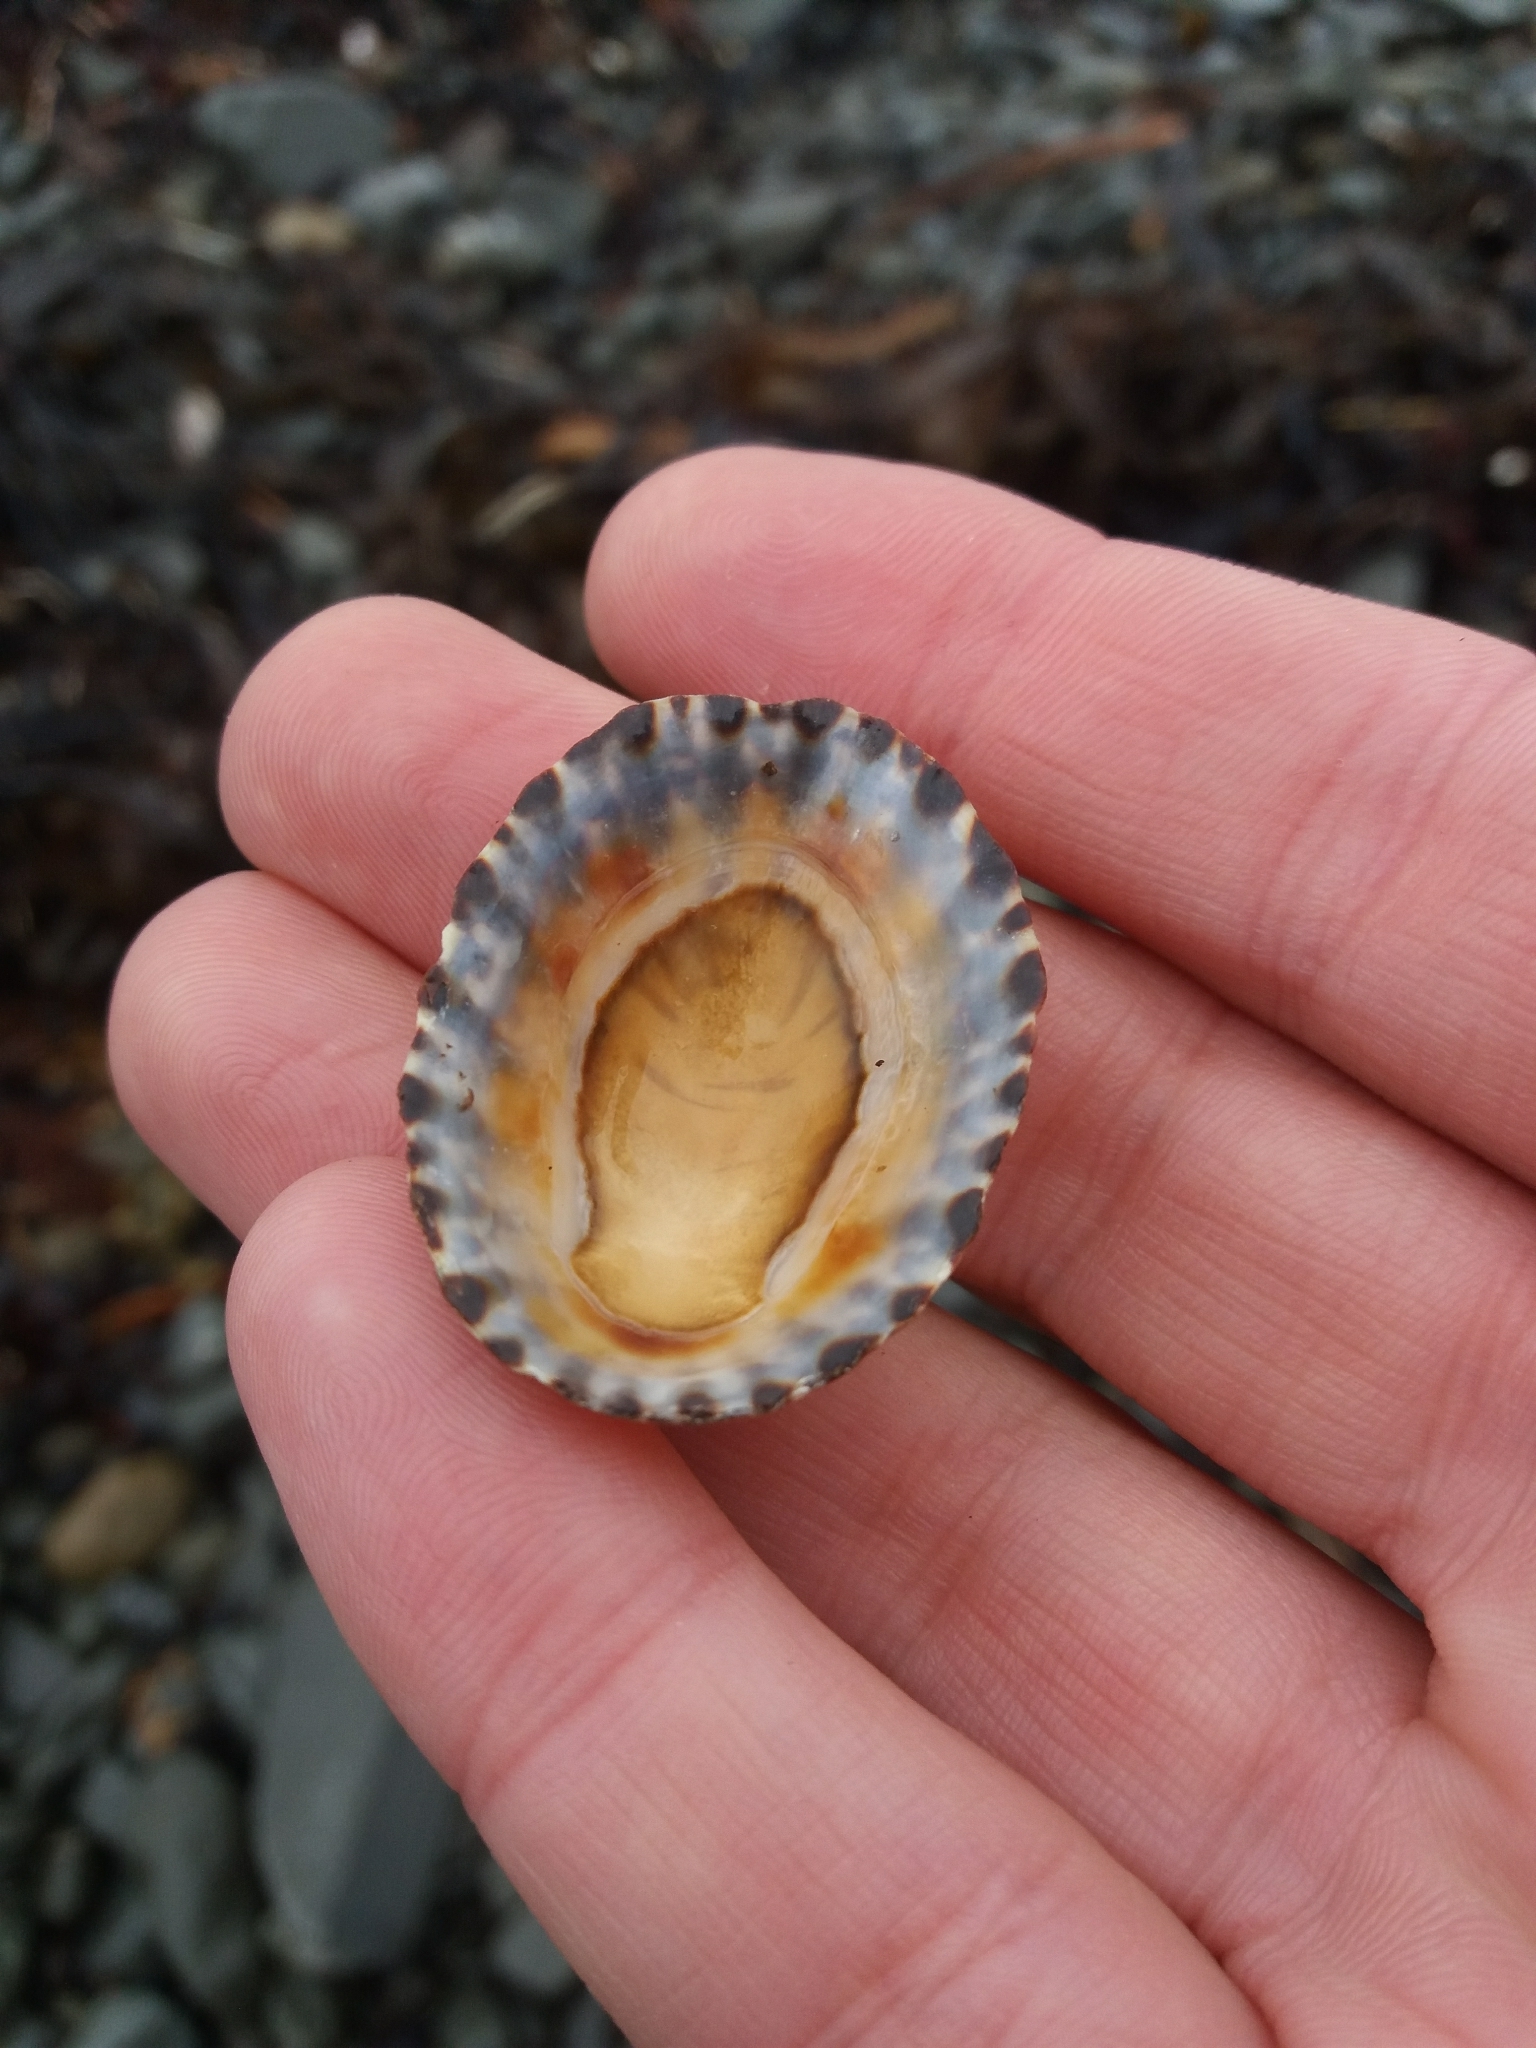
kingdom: Animalia
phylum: Mollusca
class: Gastropoda
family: Nacellidae
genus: Cellana
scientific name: Cellana denticulata
